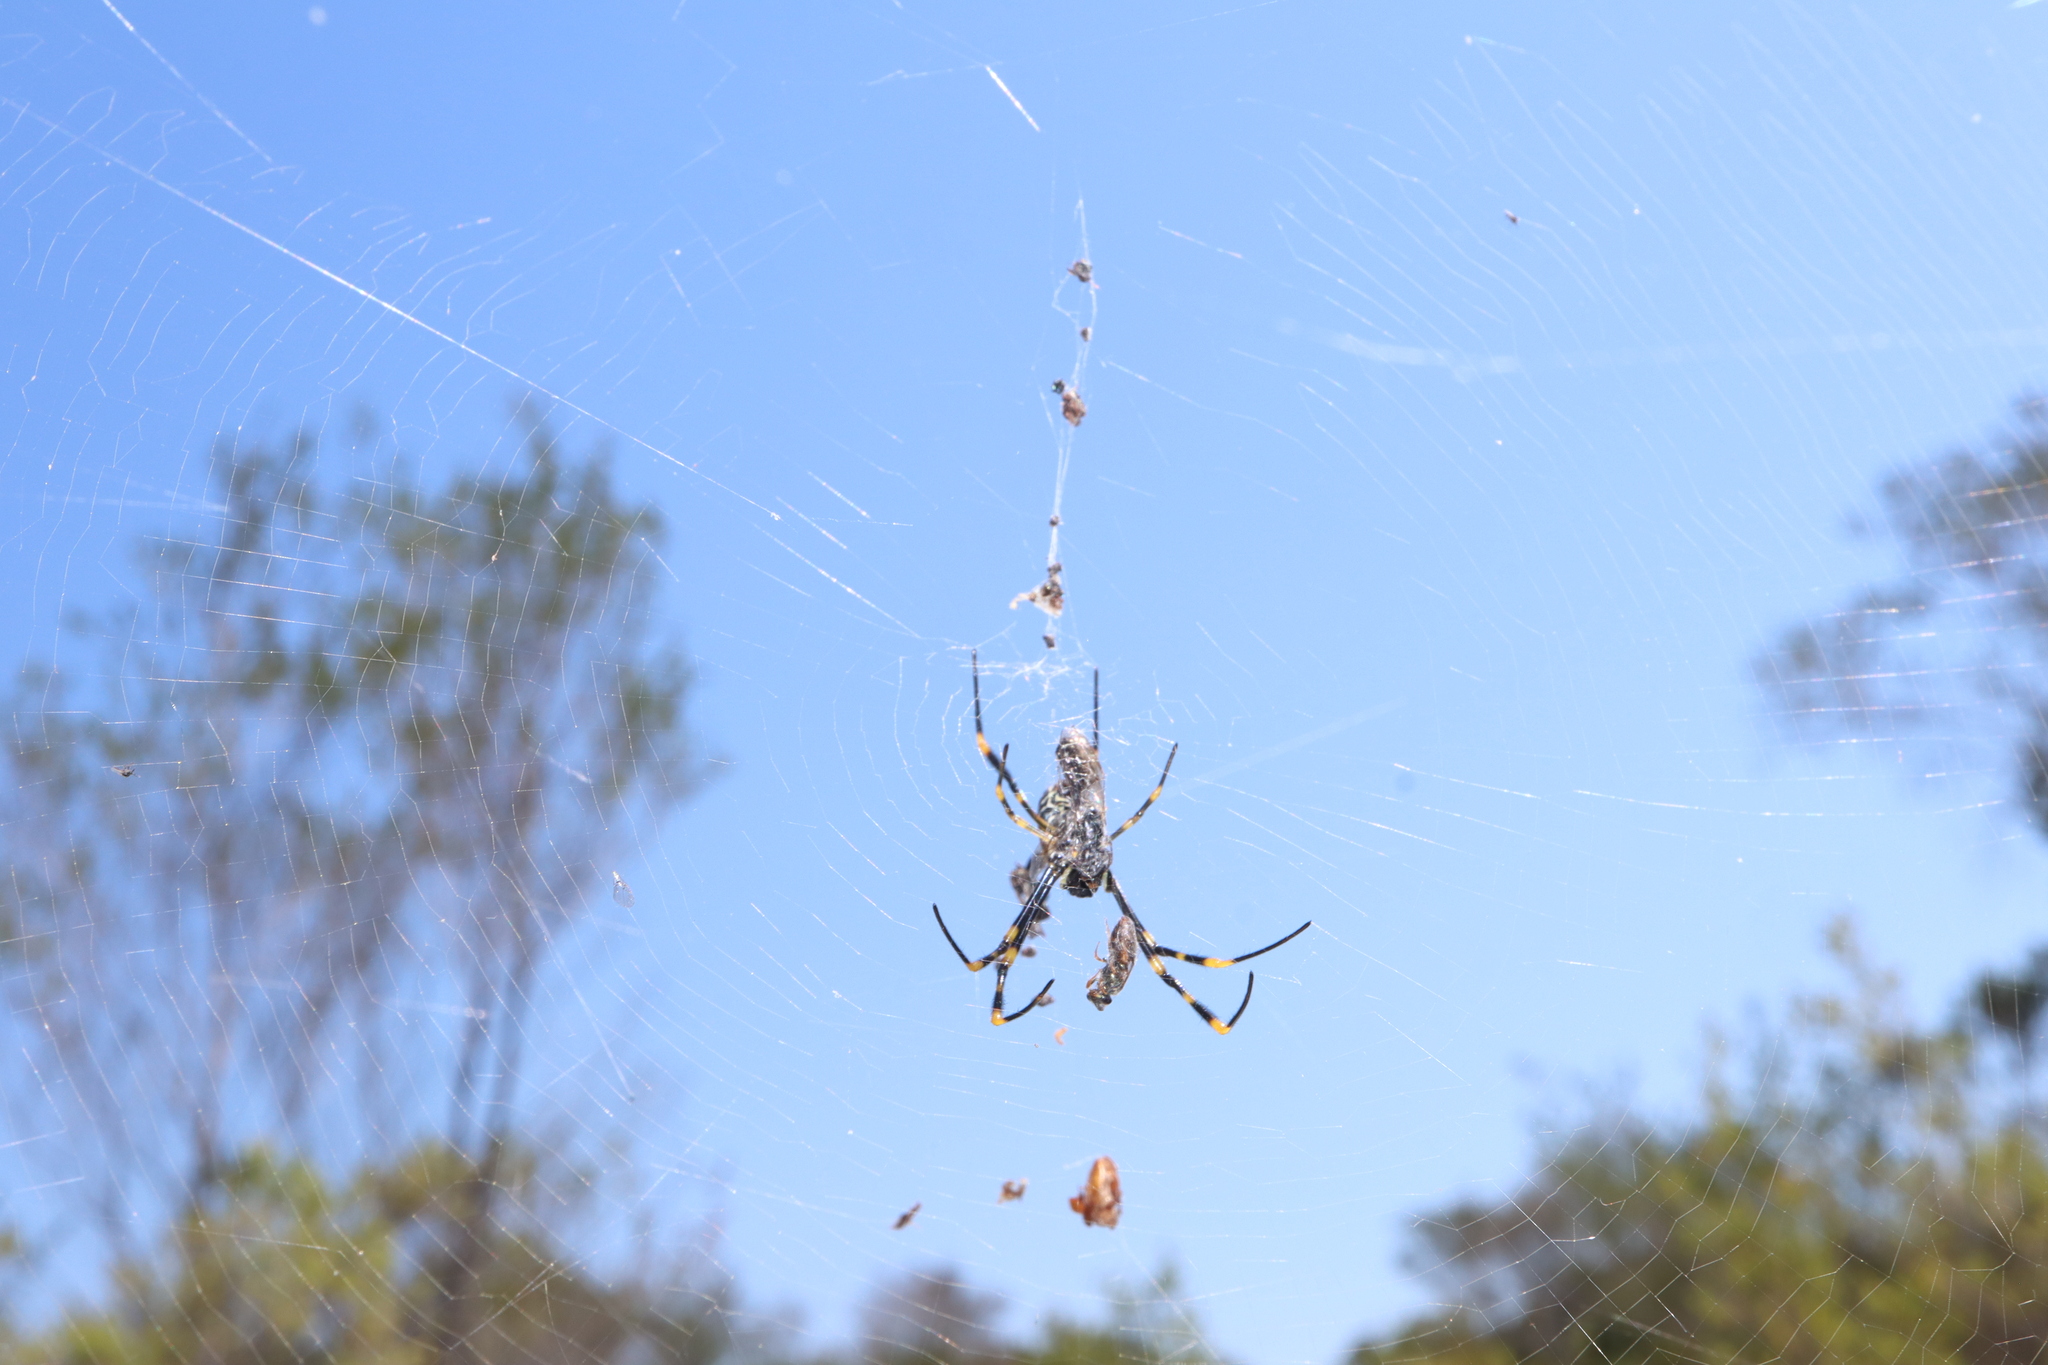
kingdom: Animalia
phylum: Arthropoda
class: Arachnida
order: Araneae
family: Araneidae
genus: Trichonephila
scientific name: Trichonephila plumipes
